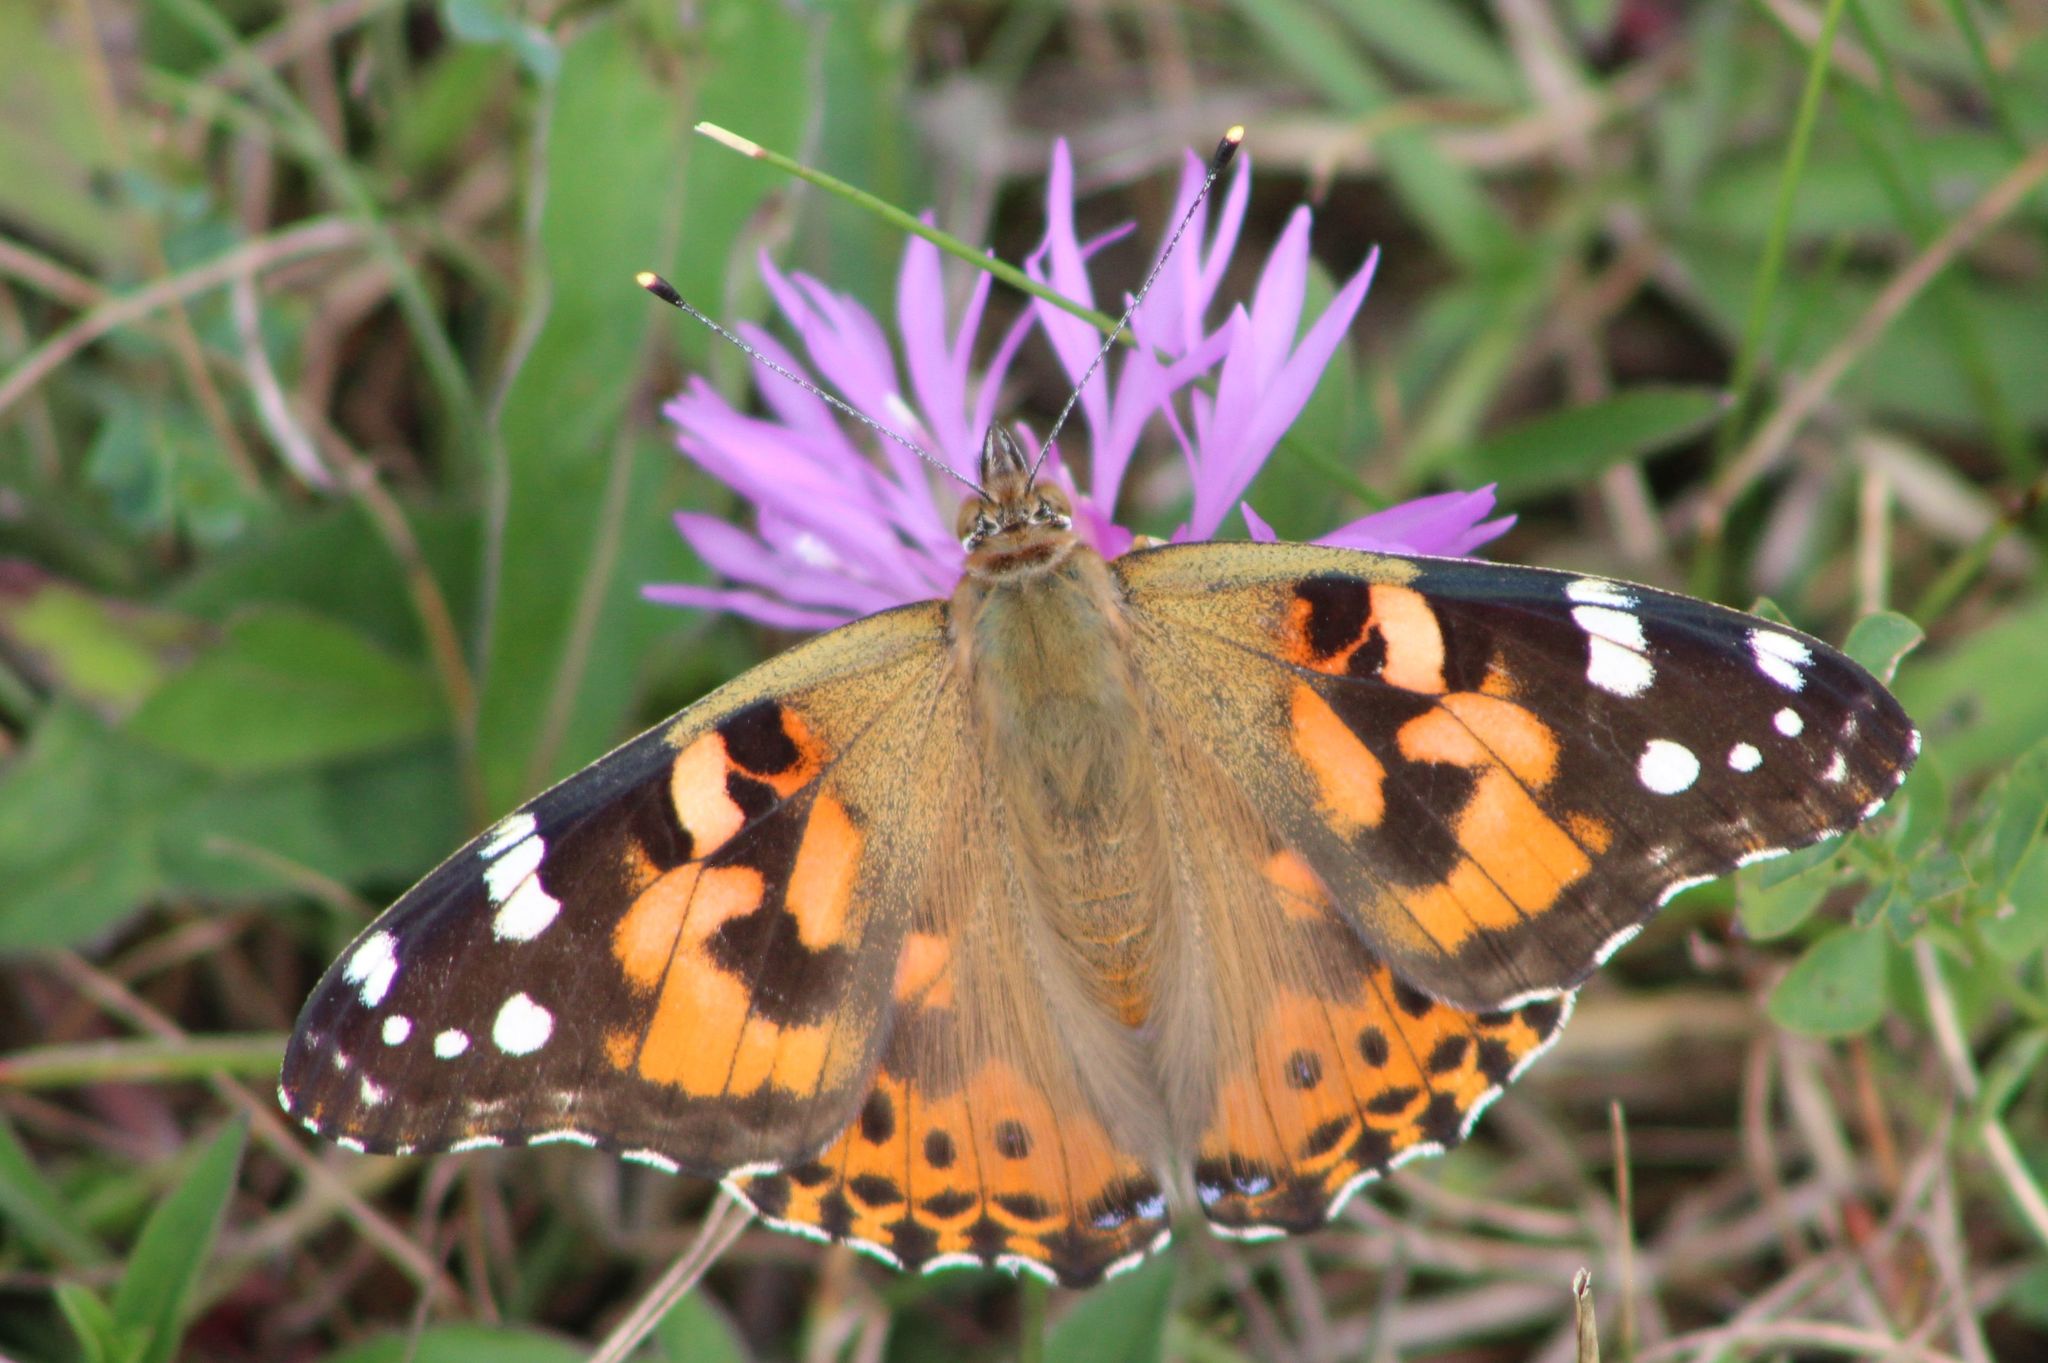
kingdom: Animalia
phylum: Arthropoda
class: Insecta
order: Lepidoptera
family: Nymphalidae
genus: Vanessa
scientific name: Vanessa cardui
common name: Painted lady
